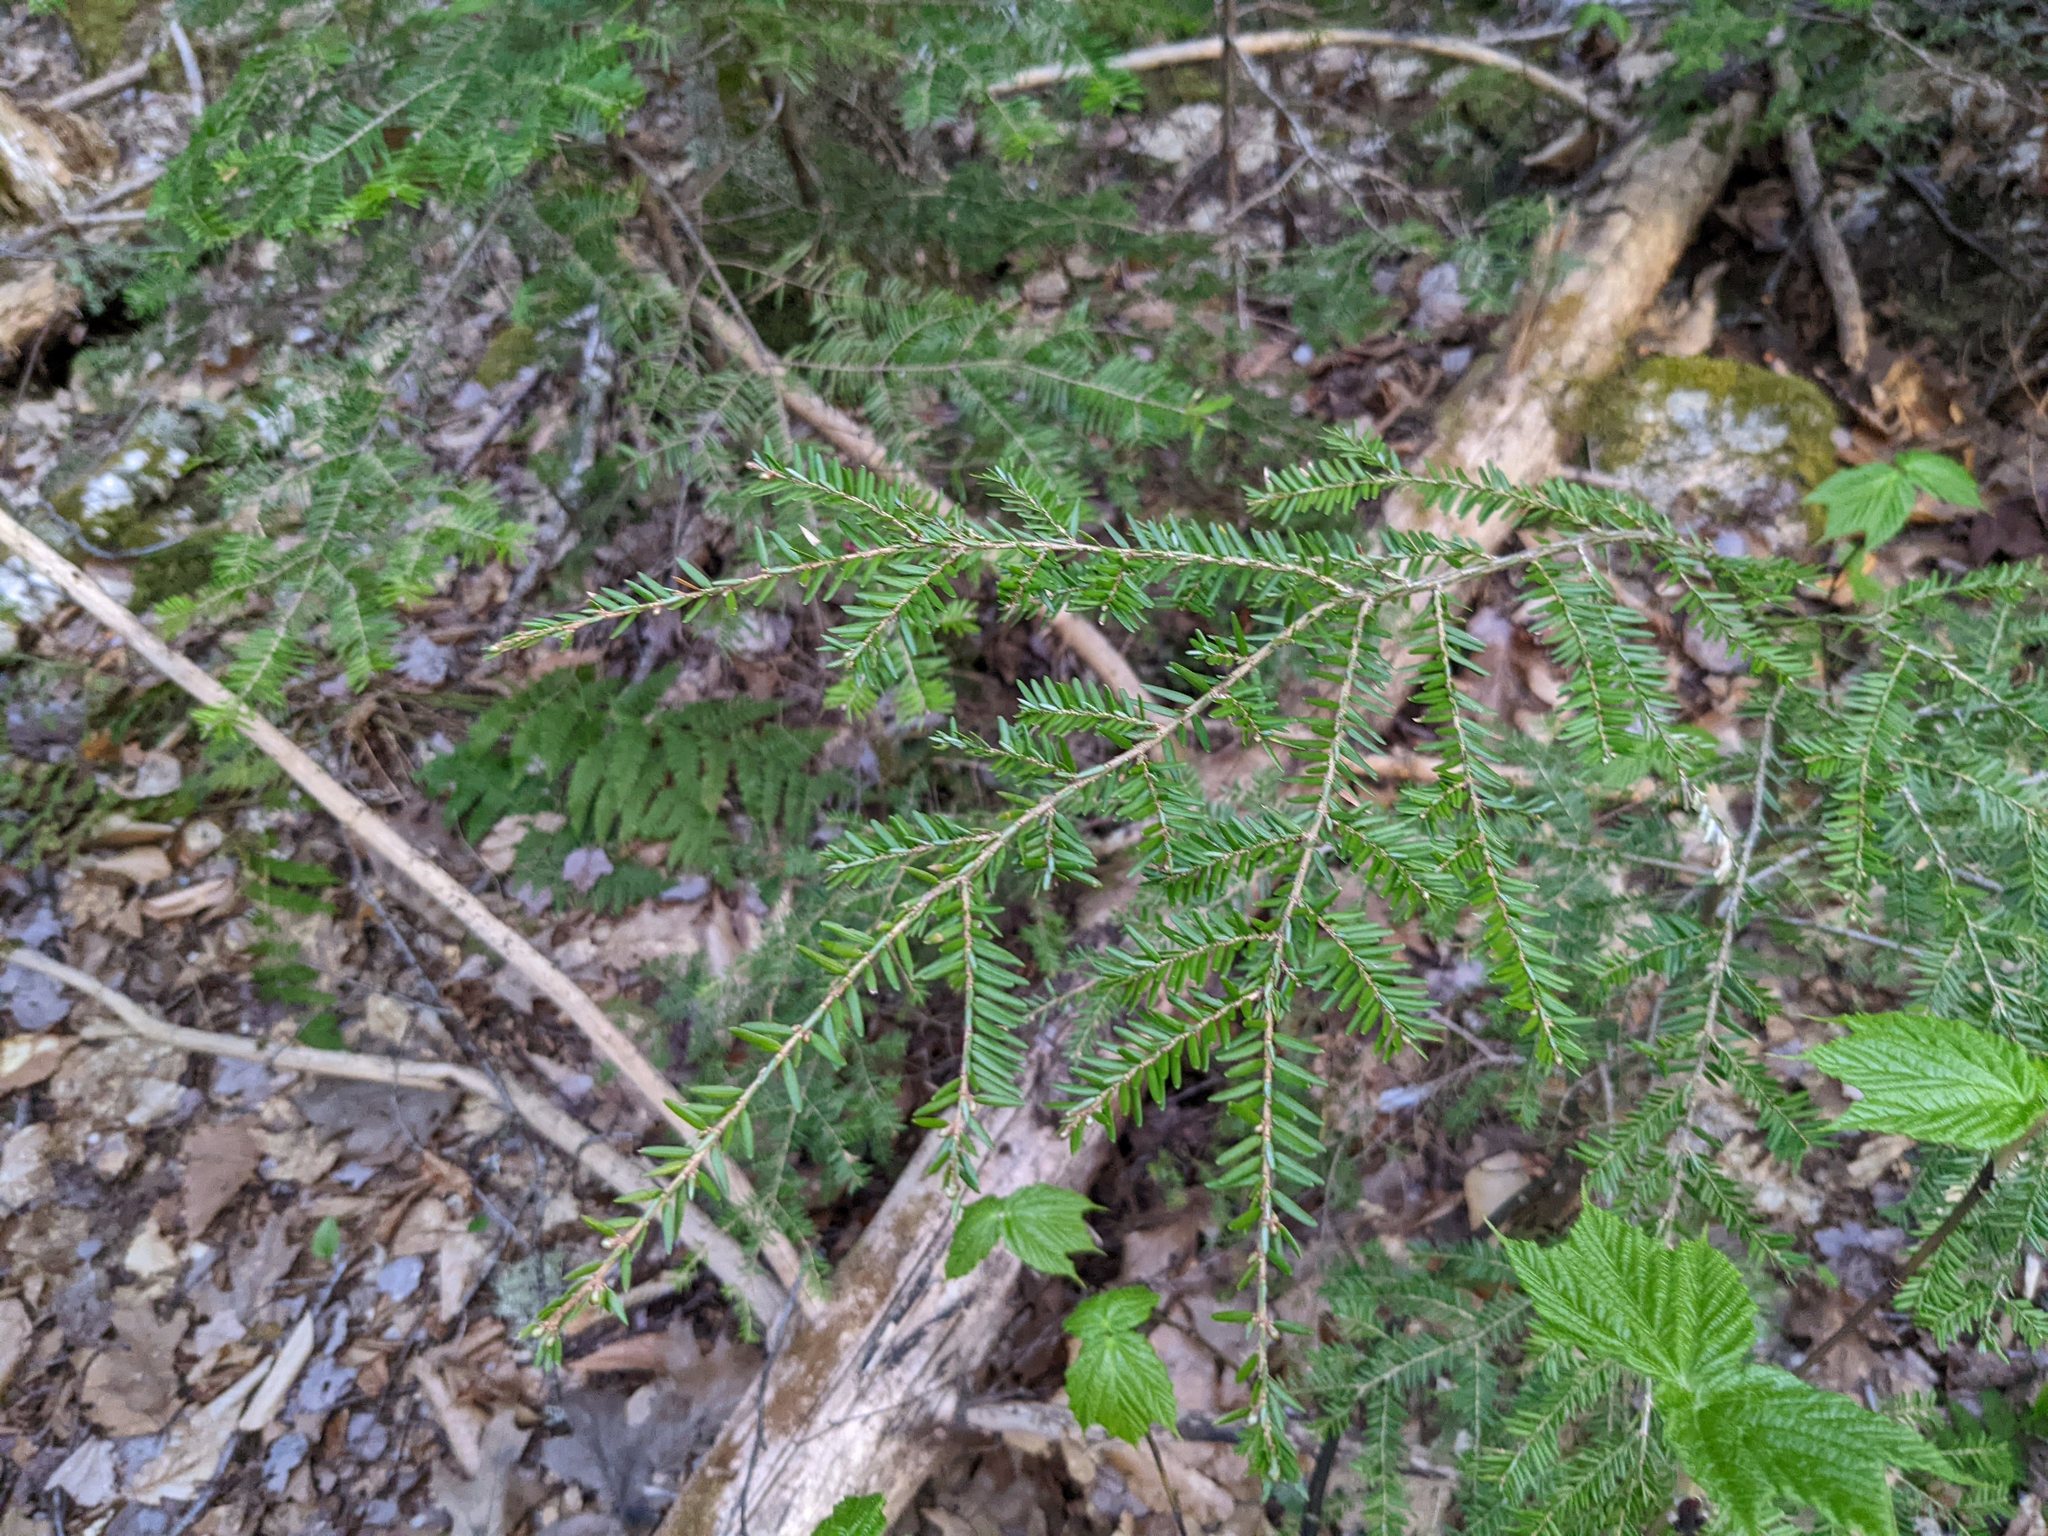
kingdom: Plantae
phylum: Tracheophyta
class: Pinopsida
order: Pinales
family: Pinaceae
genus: Tsuga
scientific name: Tsuga canadensis
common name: Eastern hemlock
